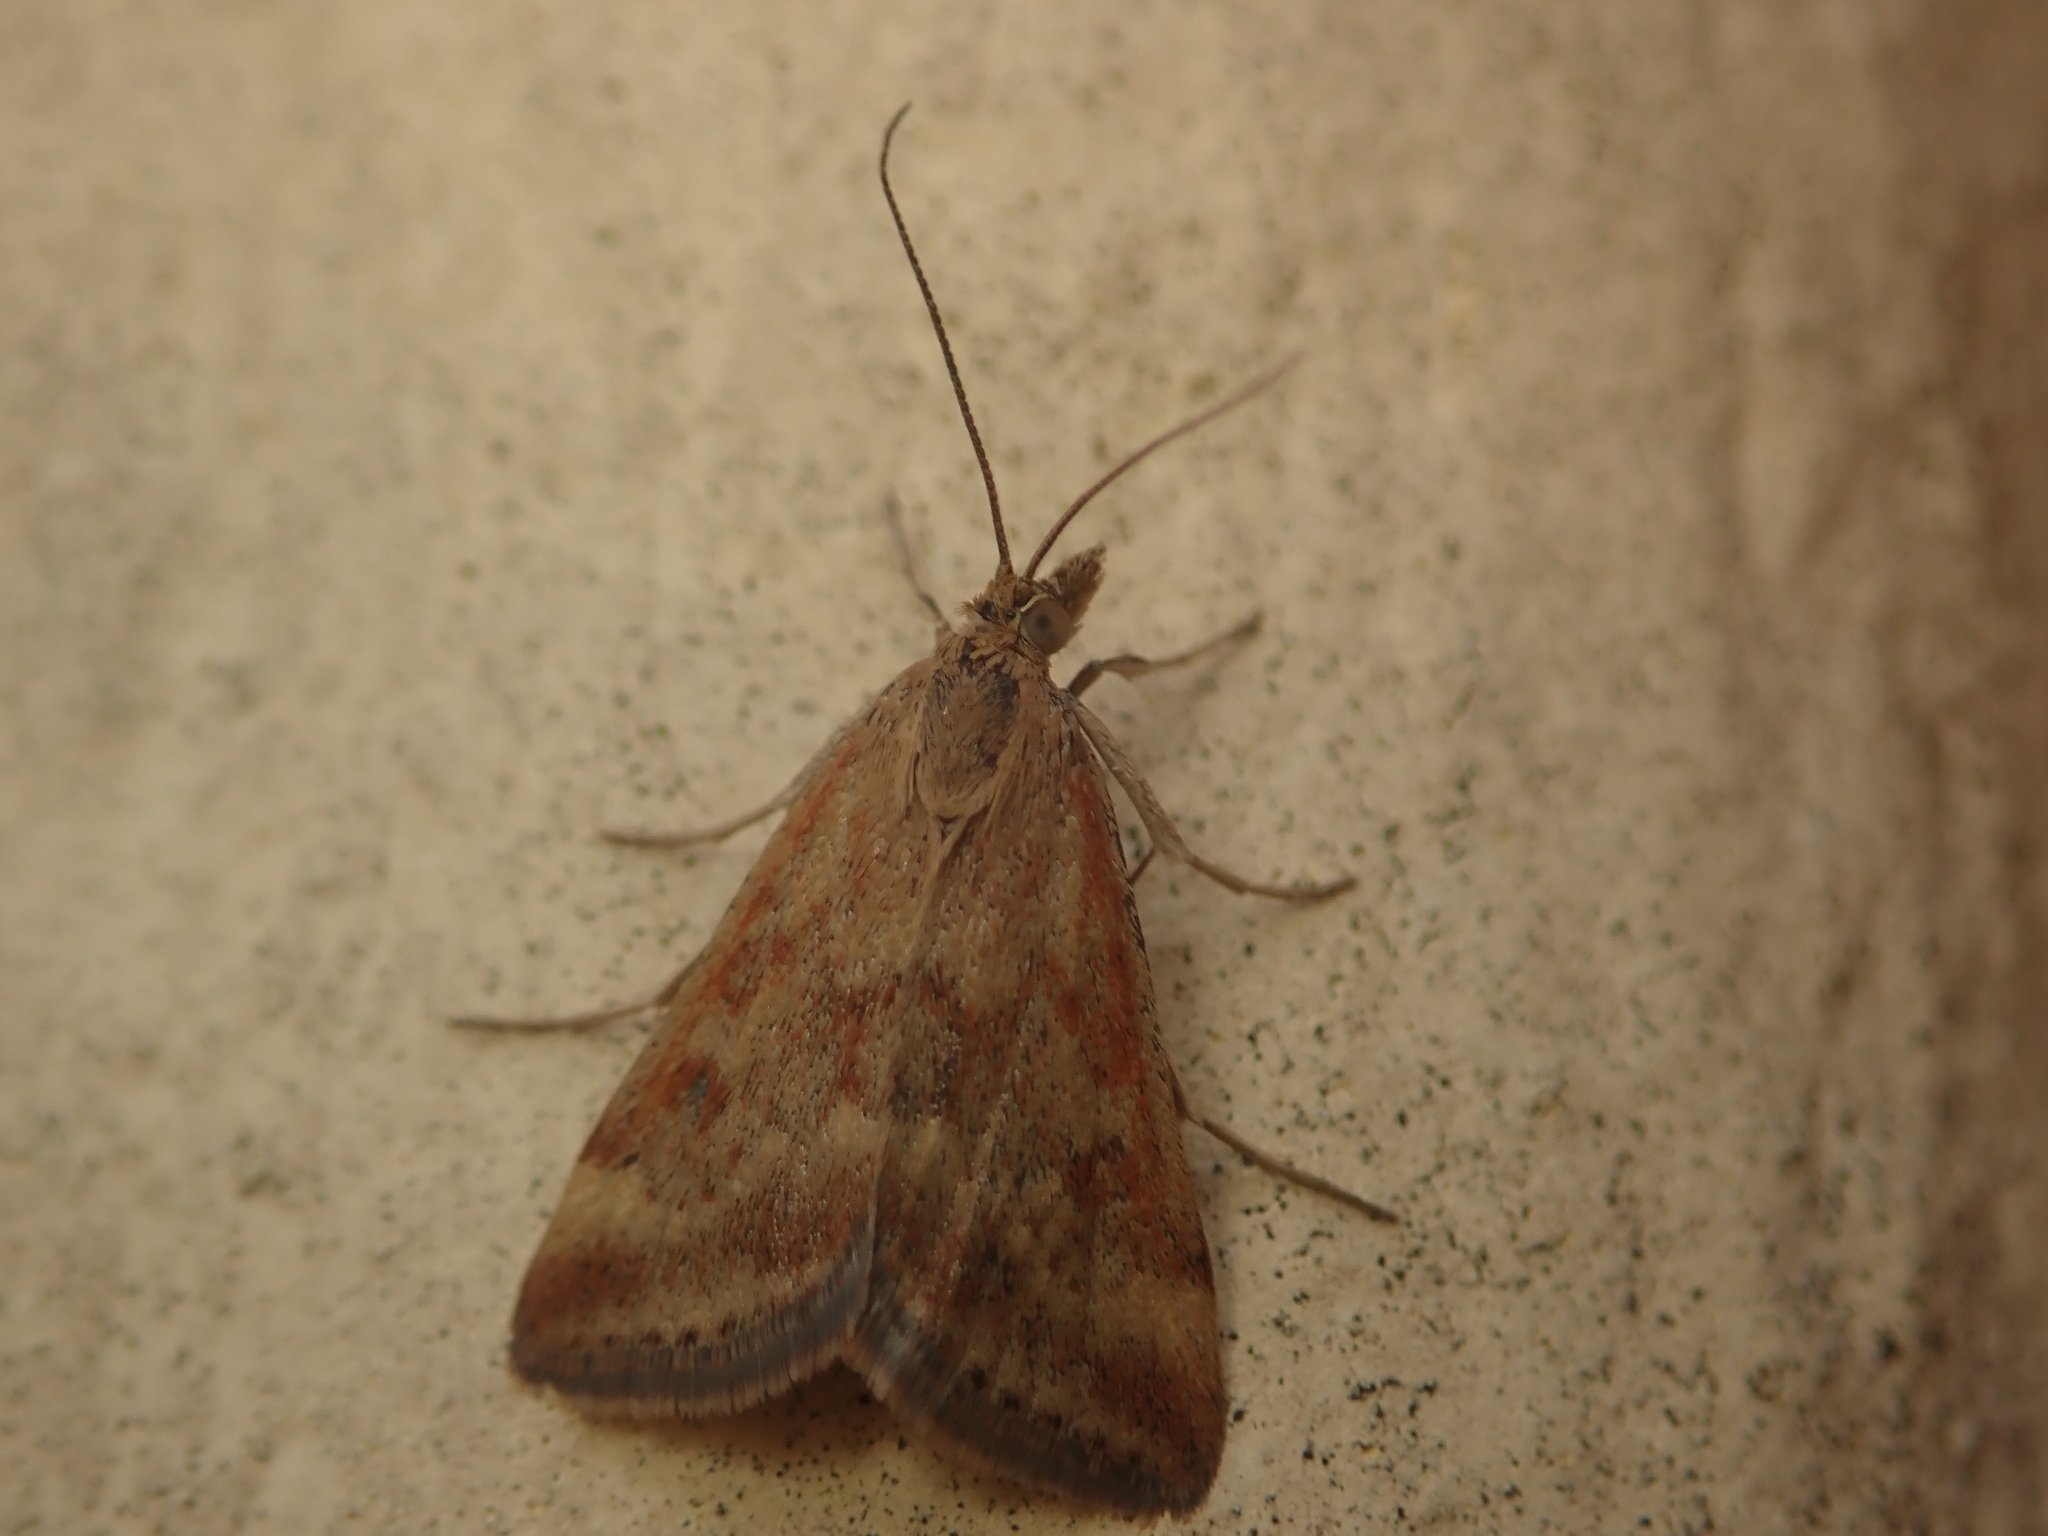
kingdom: Animalia
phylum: Arthropoda
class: Insecta
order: Lepidoptera
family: Crambidae
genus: Pyrausta
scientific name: Pyrausta despicata
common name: Straw-barred pearl
